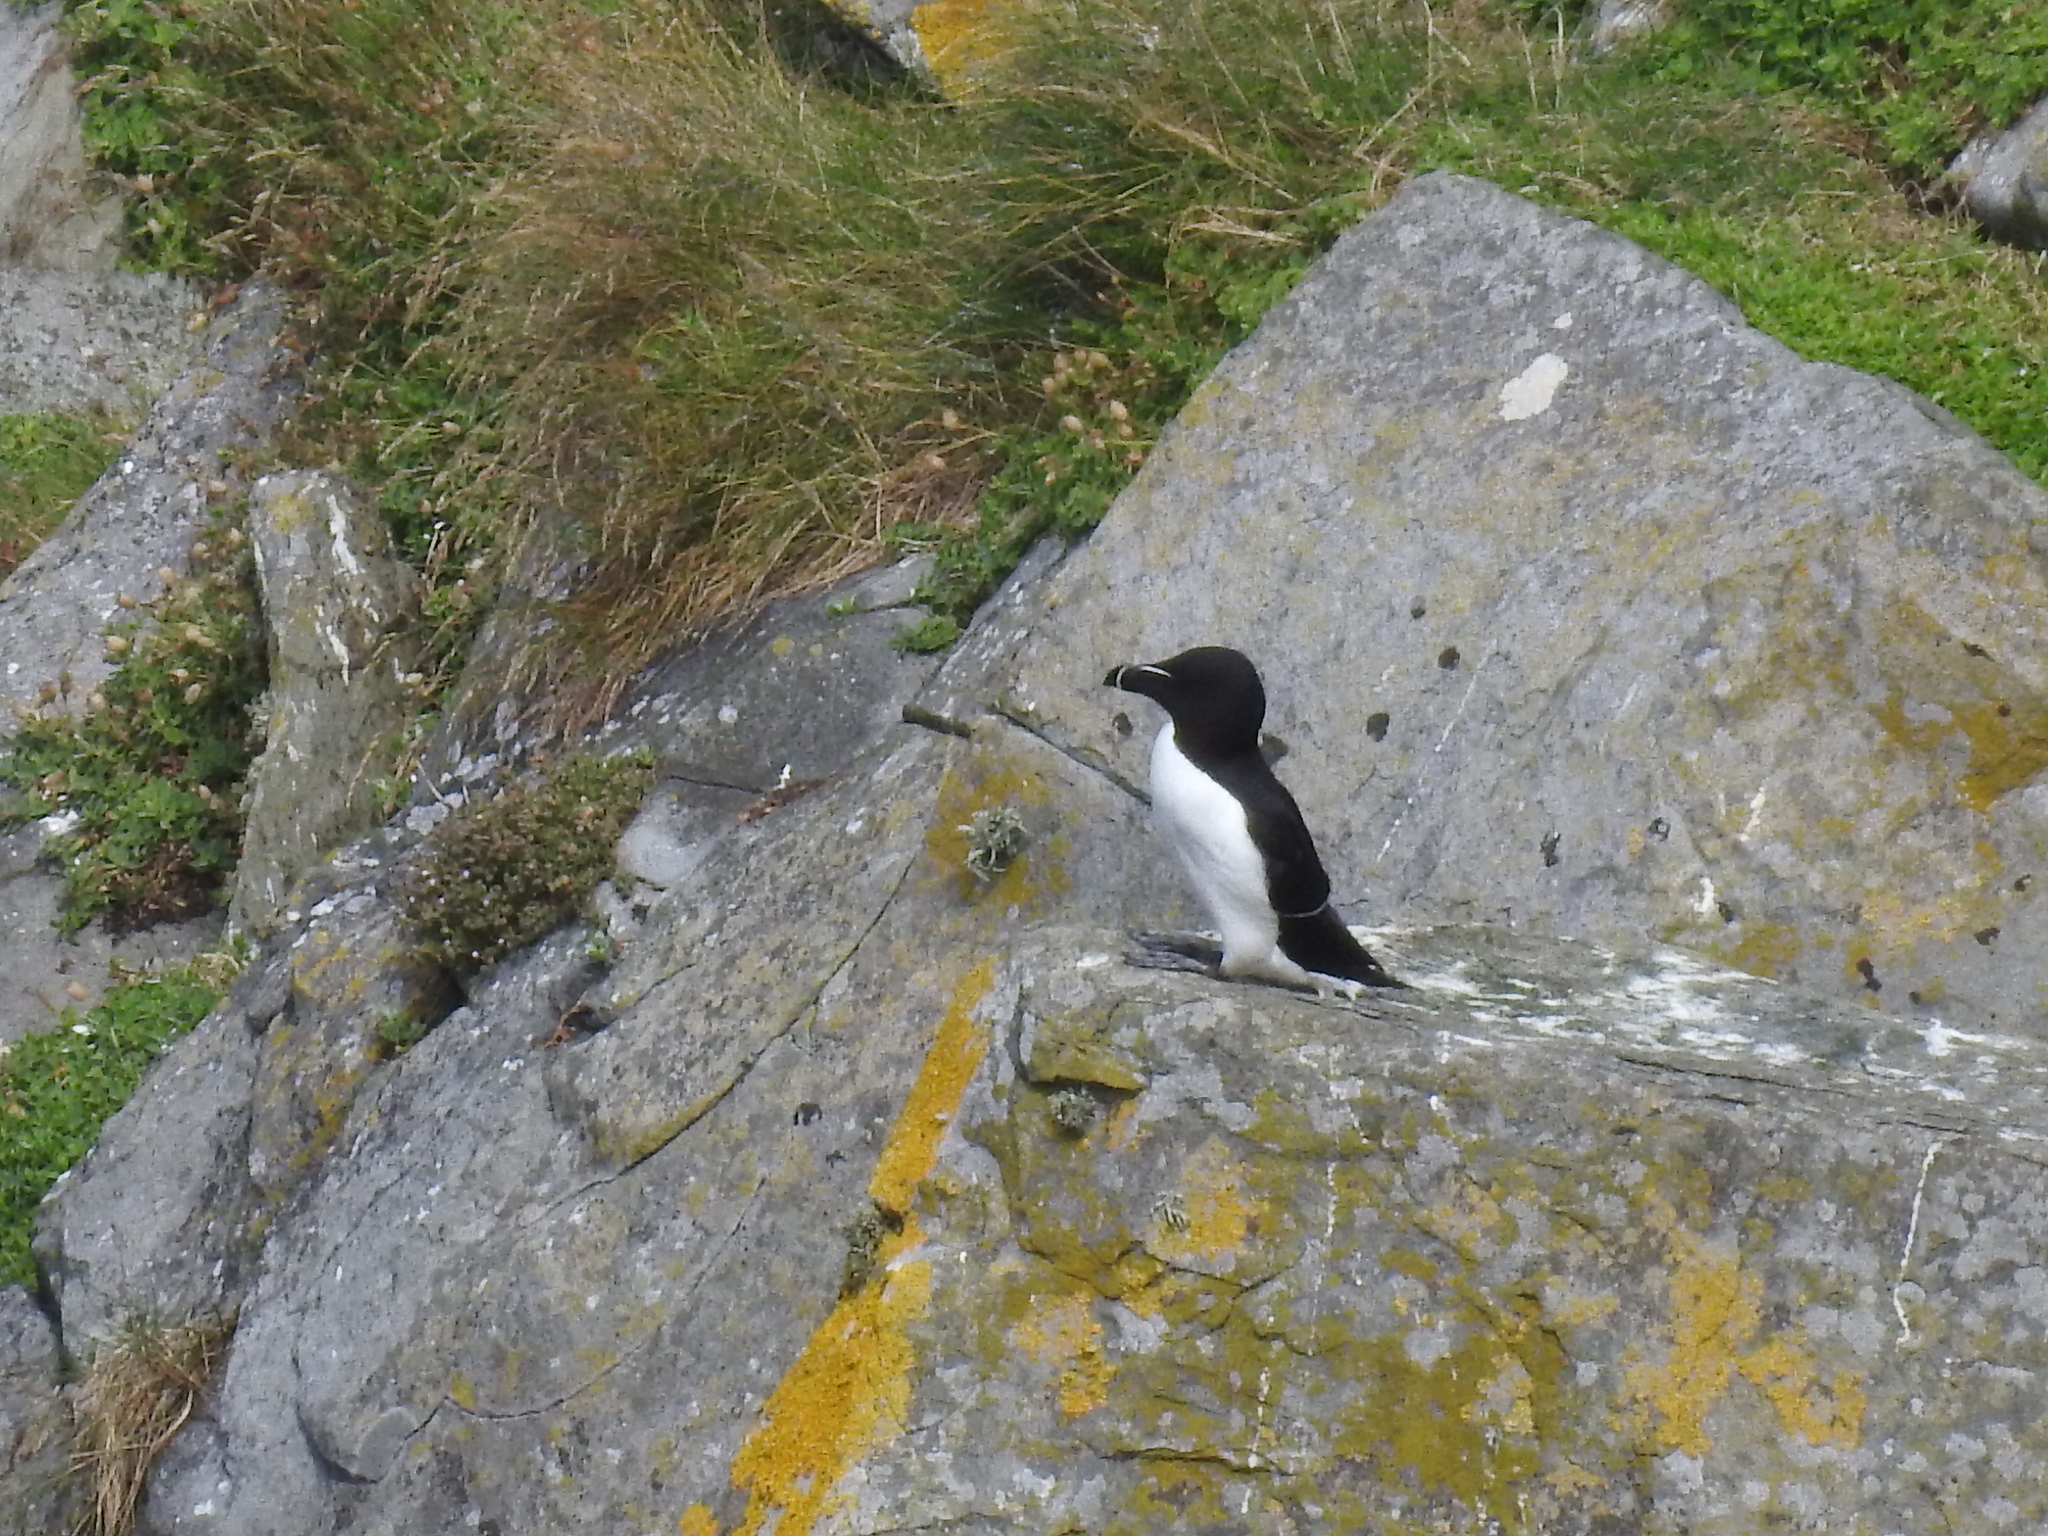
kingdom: Animalia
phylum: Chordata
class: Aves
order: Charadriiformes
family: Alcidae
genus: Alca
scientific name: Alca torda
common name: Razorbill
